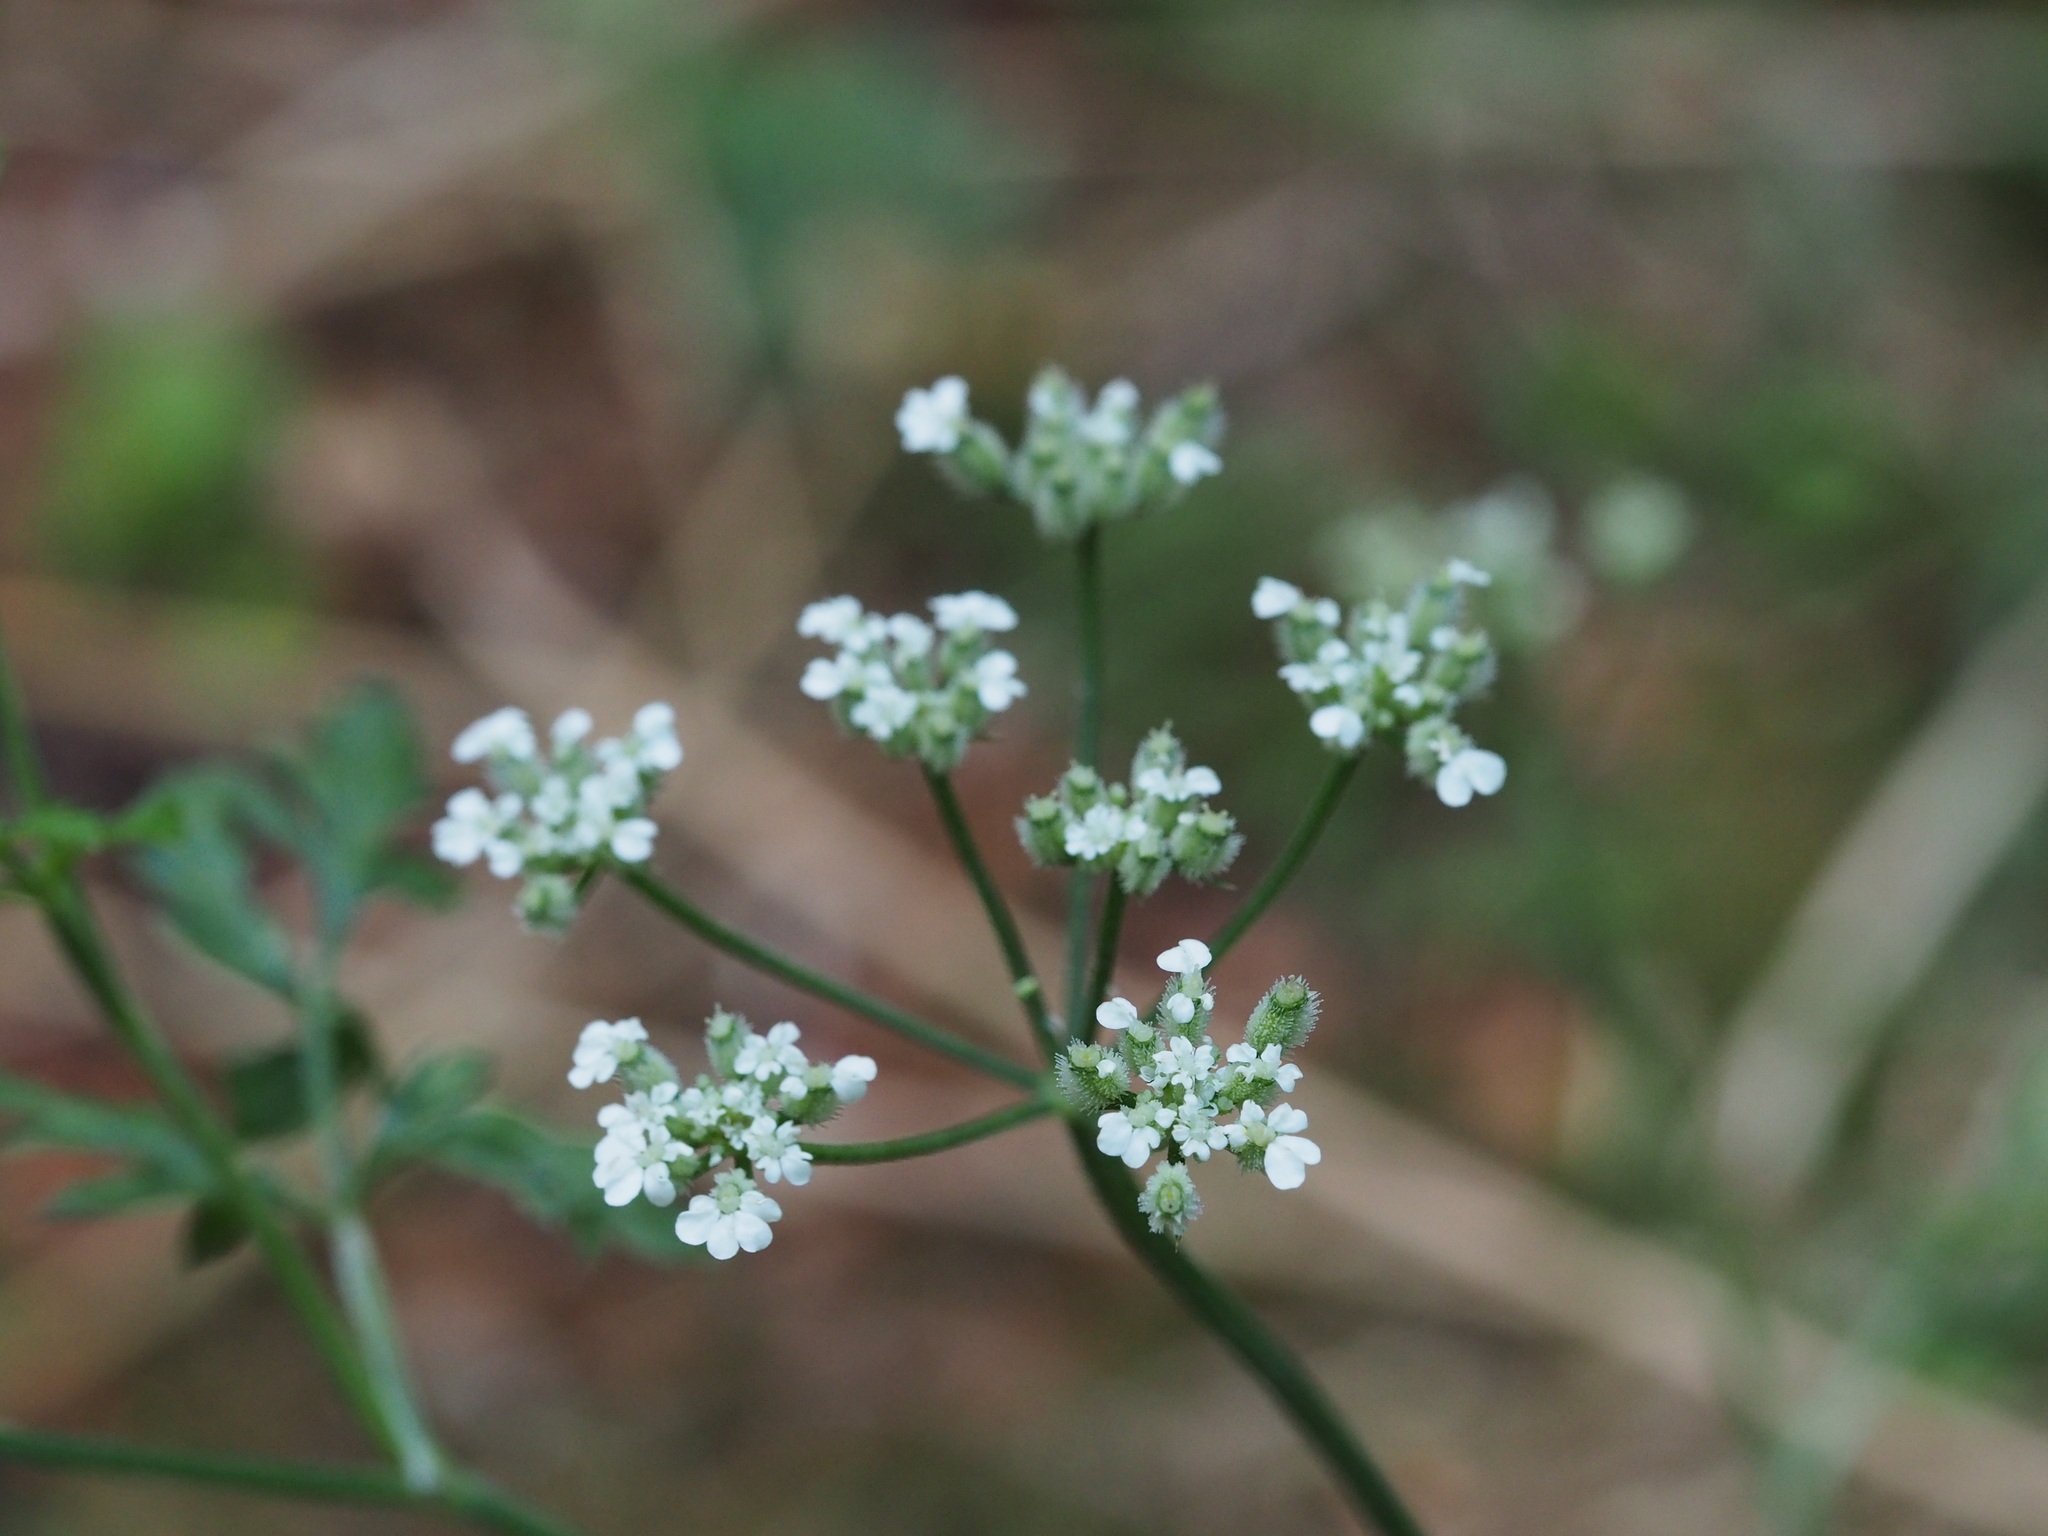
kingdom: Plantae
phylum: Tracheophyta
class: Magnoliopsida
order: Apiales
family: Apiaceae
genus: Torilis
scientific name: Torilis arvensis
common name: Spreading hedge-parsley
